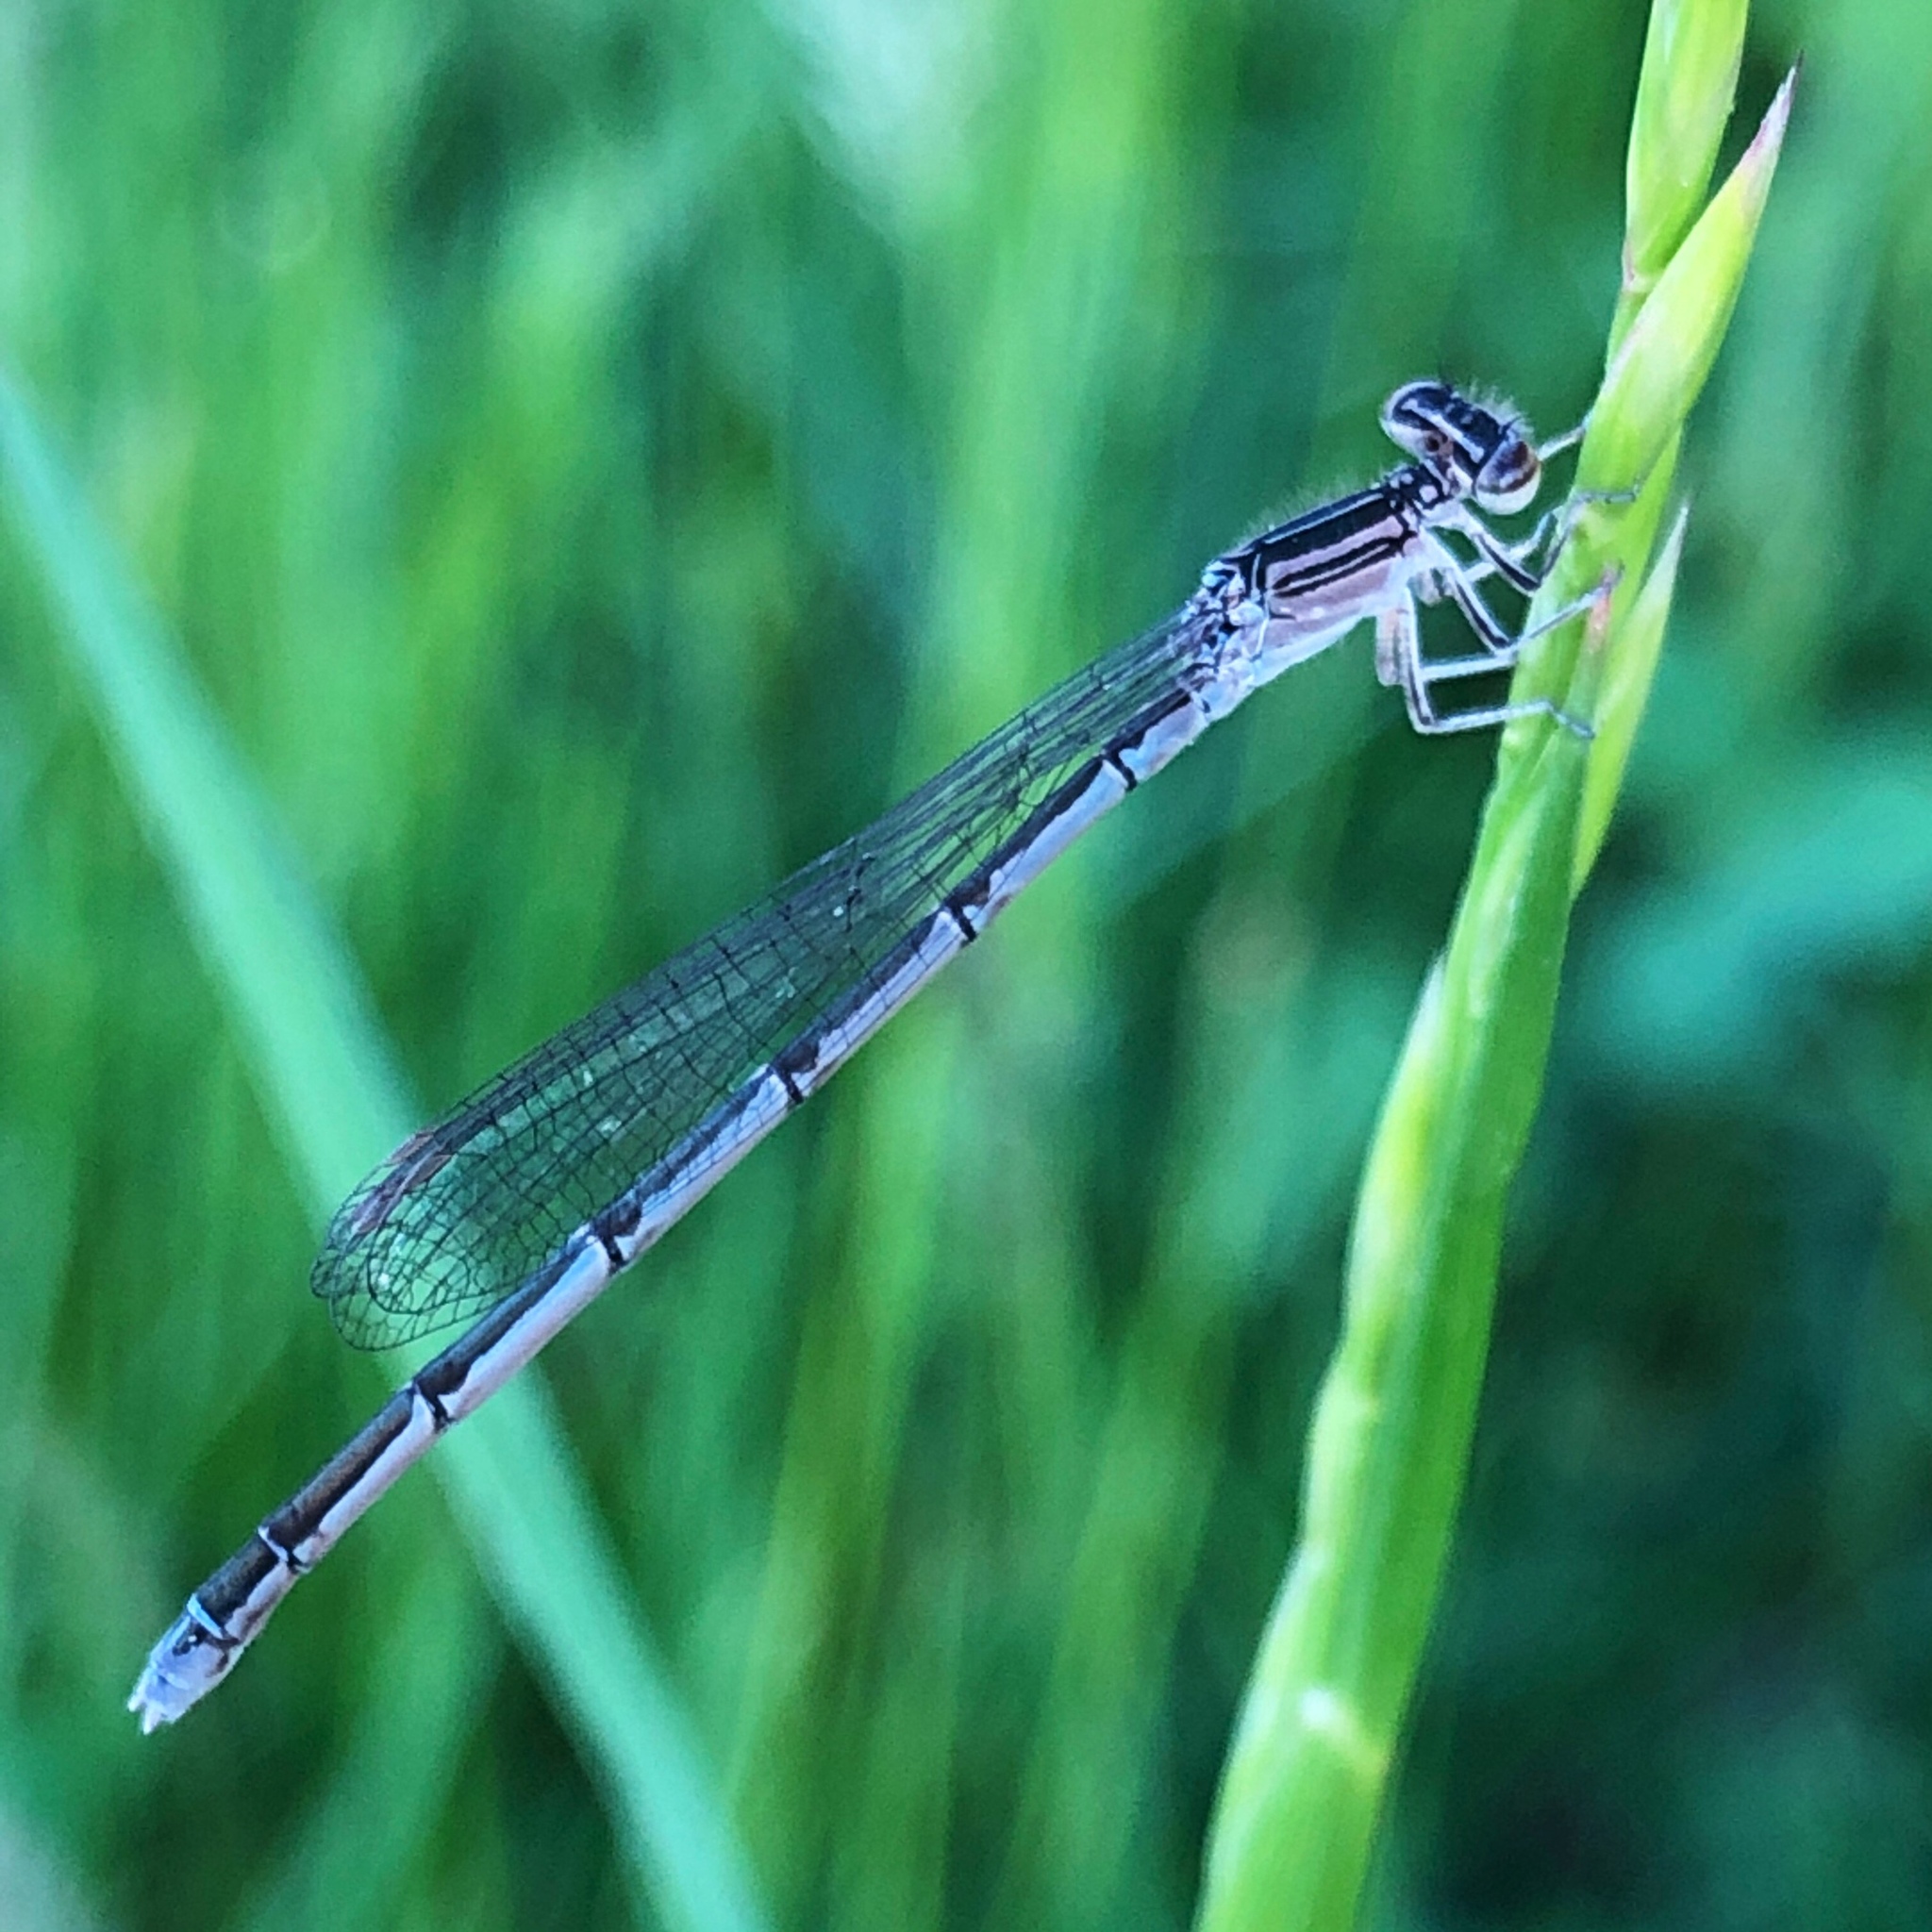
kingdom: Animalia
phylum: Arthropoda
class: Insecta
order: Odonata
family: Coenagrionidae
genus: Enallagma
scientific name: Enallagma basidens
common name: Double-striped bluet
